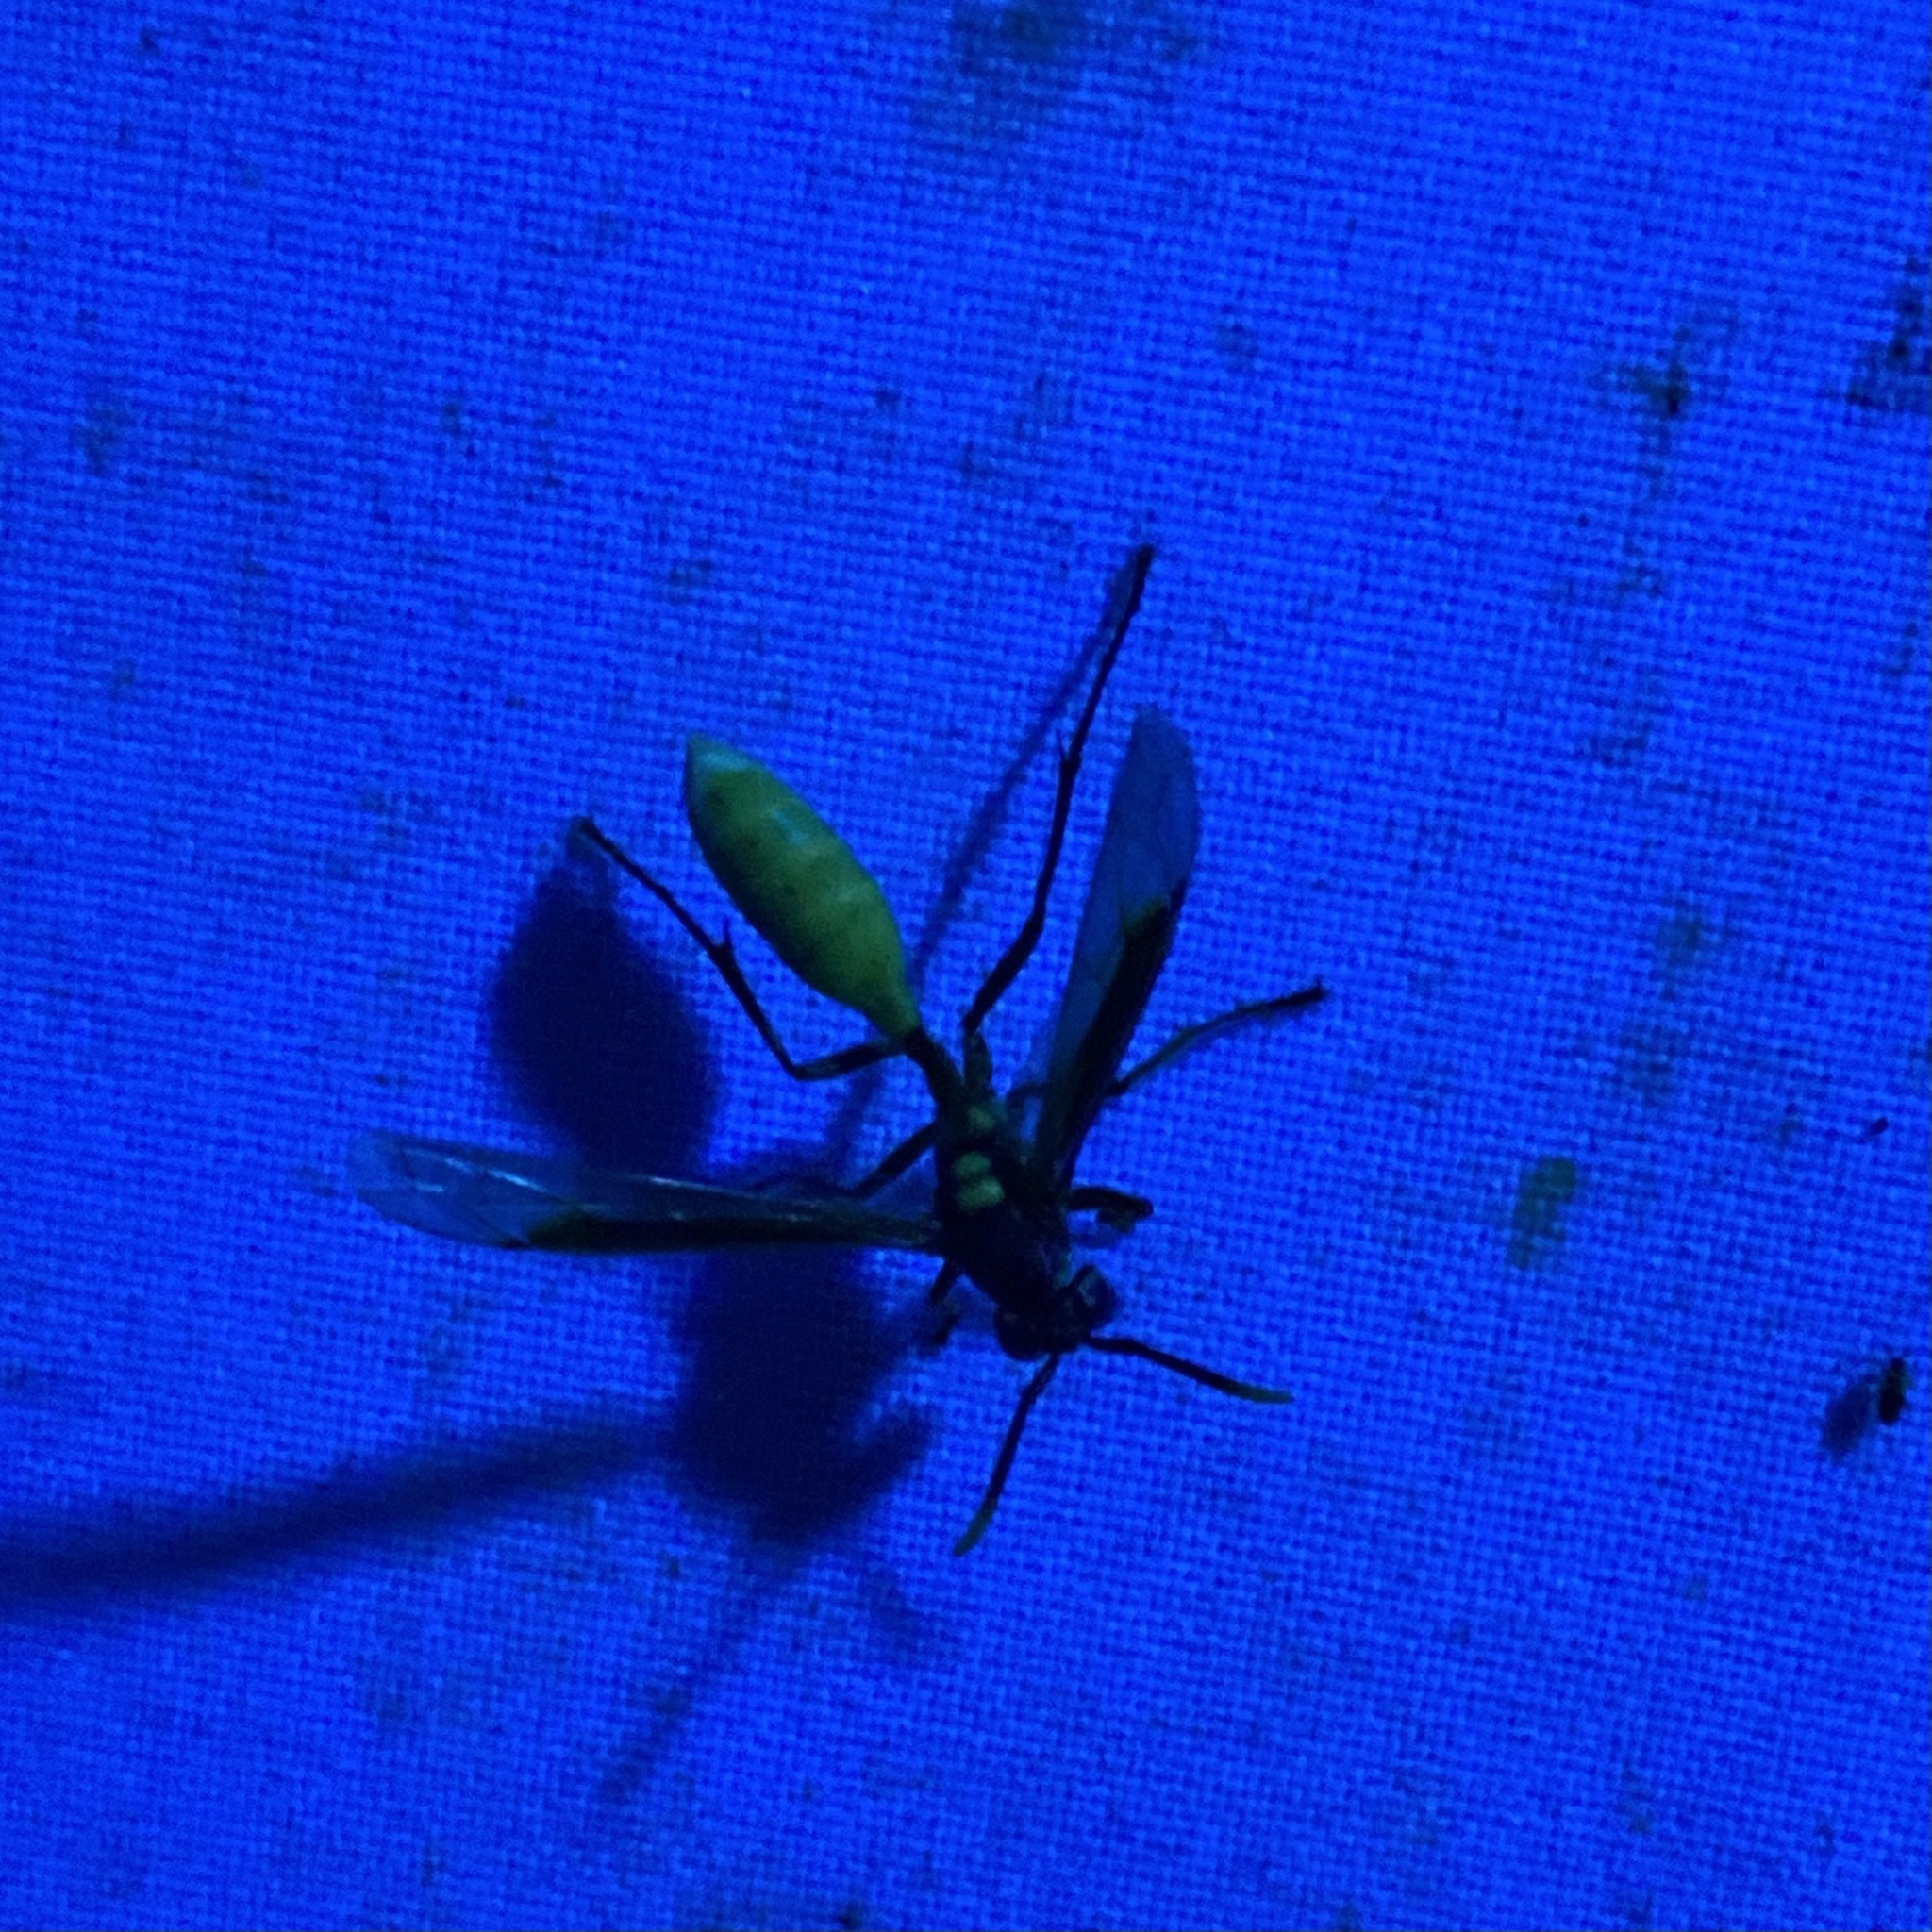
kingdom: Animalia
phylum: Arthropoda
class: Insecta
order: Hymenoptera
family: Vespidae
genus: Apoica
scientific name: Apoica pallens
